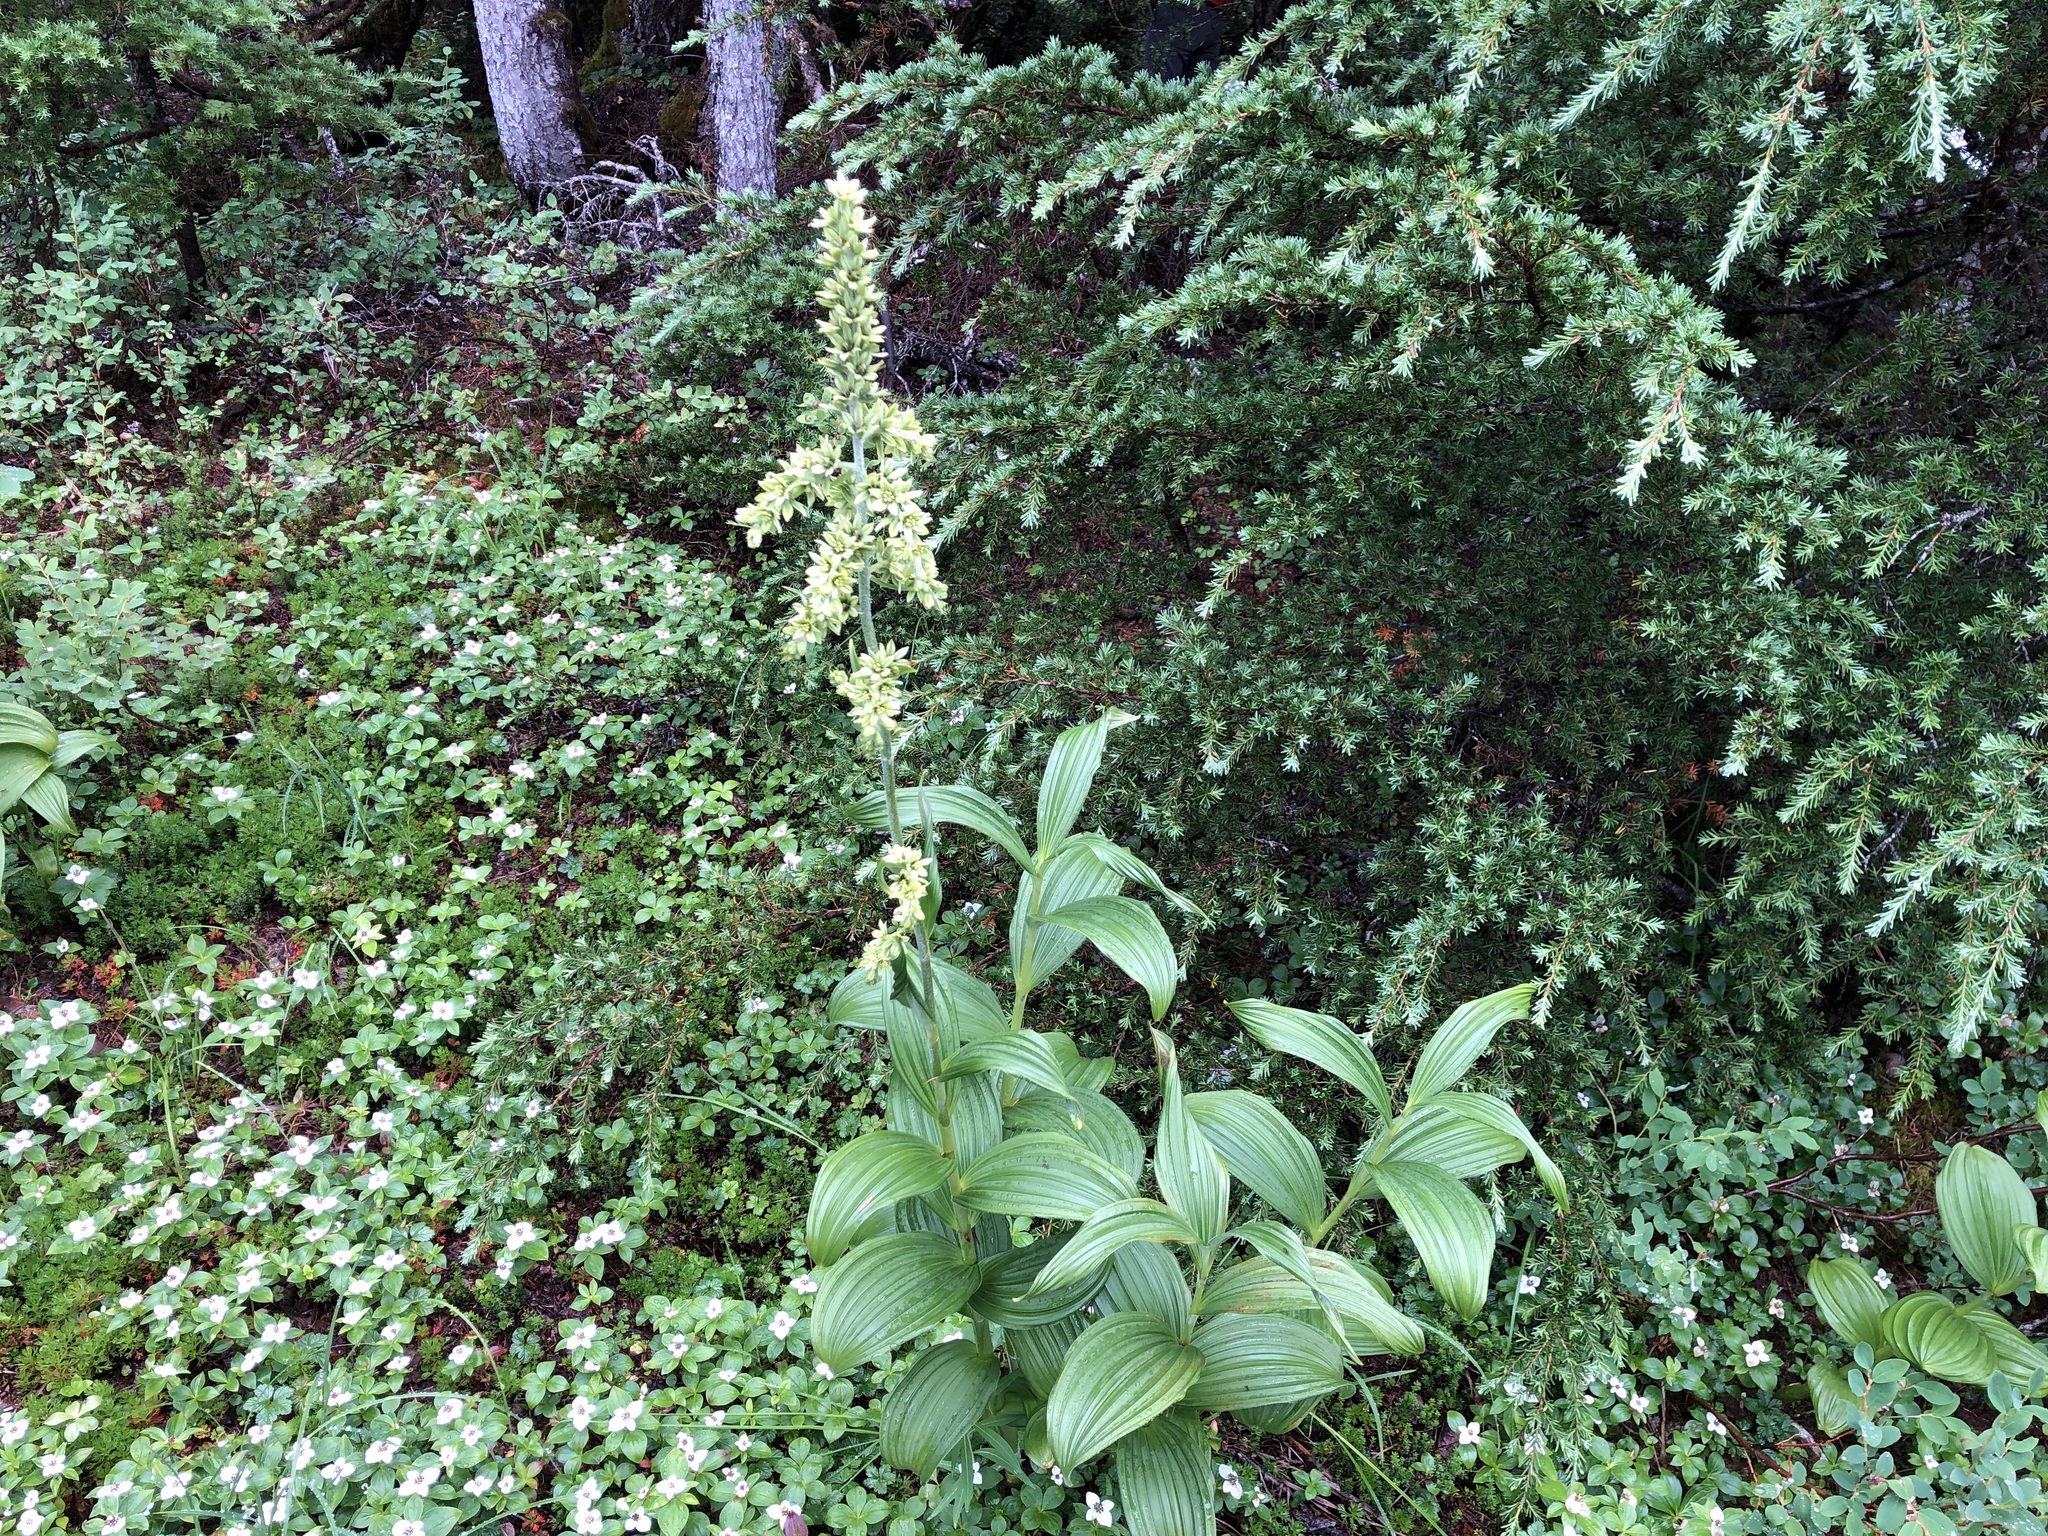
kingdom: Plantae
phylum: Tracheophyta
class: Liliopsida
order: Liliales
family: Melanthiaceae
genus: Veratrum
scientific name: Veratrum viride
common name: American false hellebore
